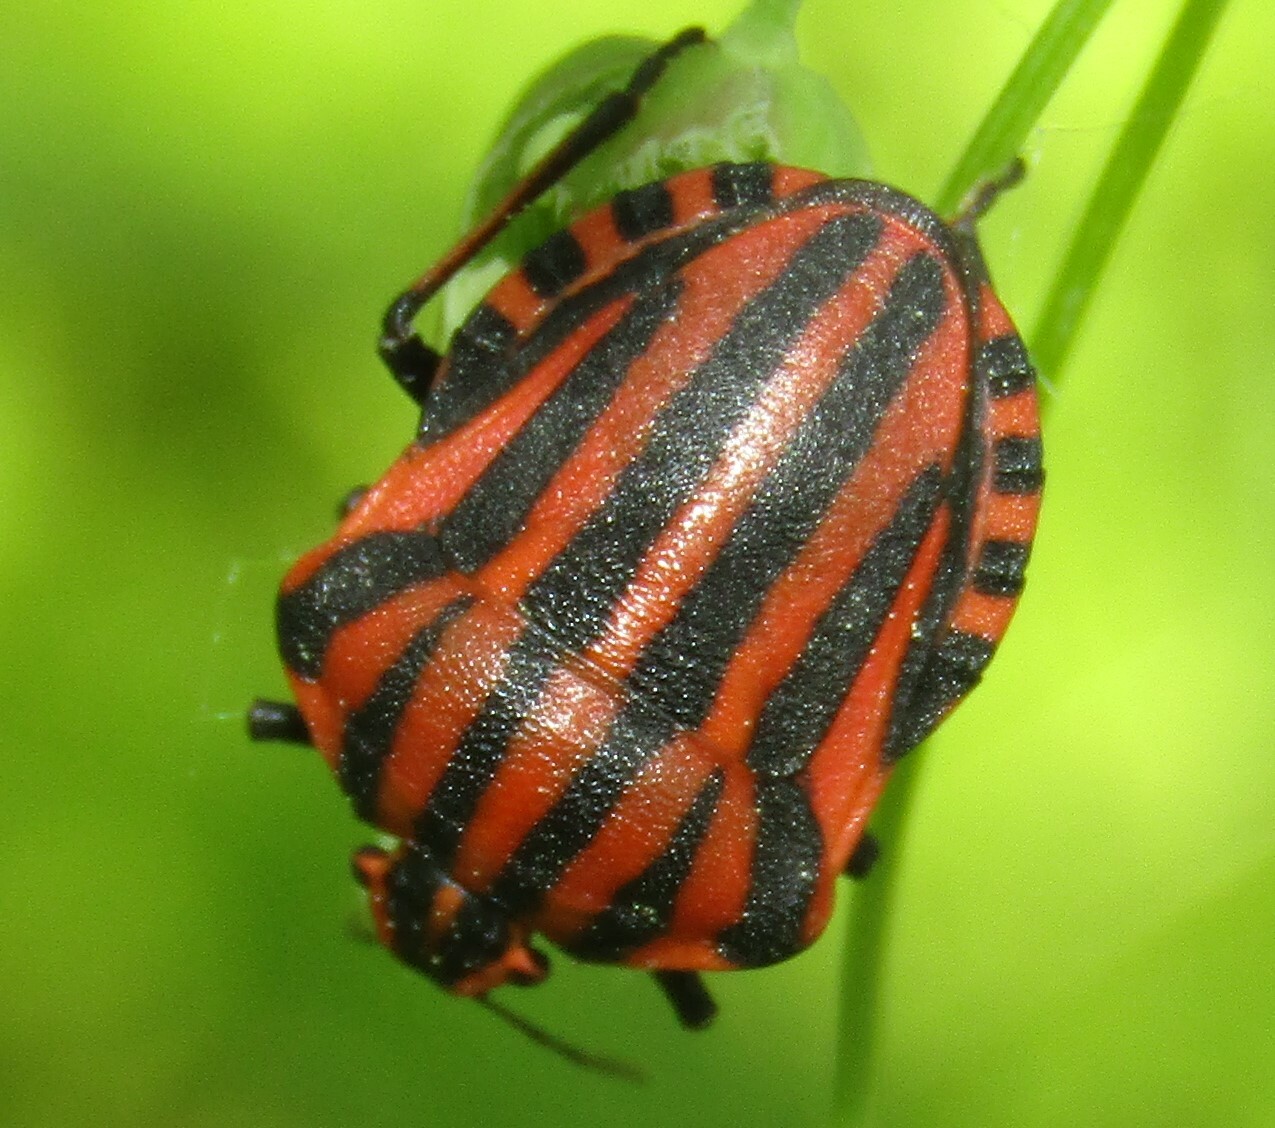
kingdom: Animalia
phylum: Arthropoda
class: Insecta
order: Hemiptera
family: Pentatomidae
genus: Graphosoma
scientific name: Graphosoma italicum
